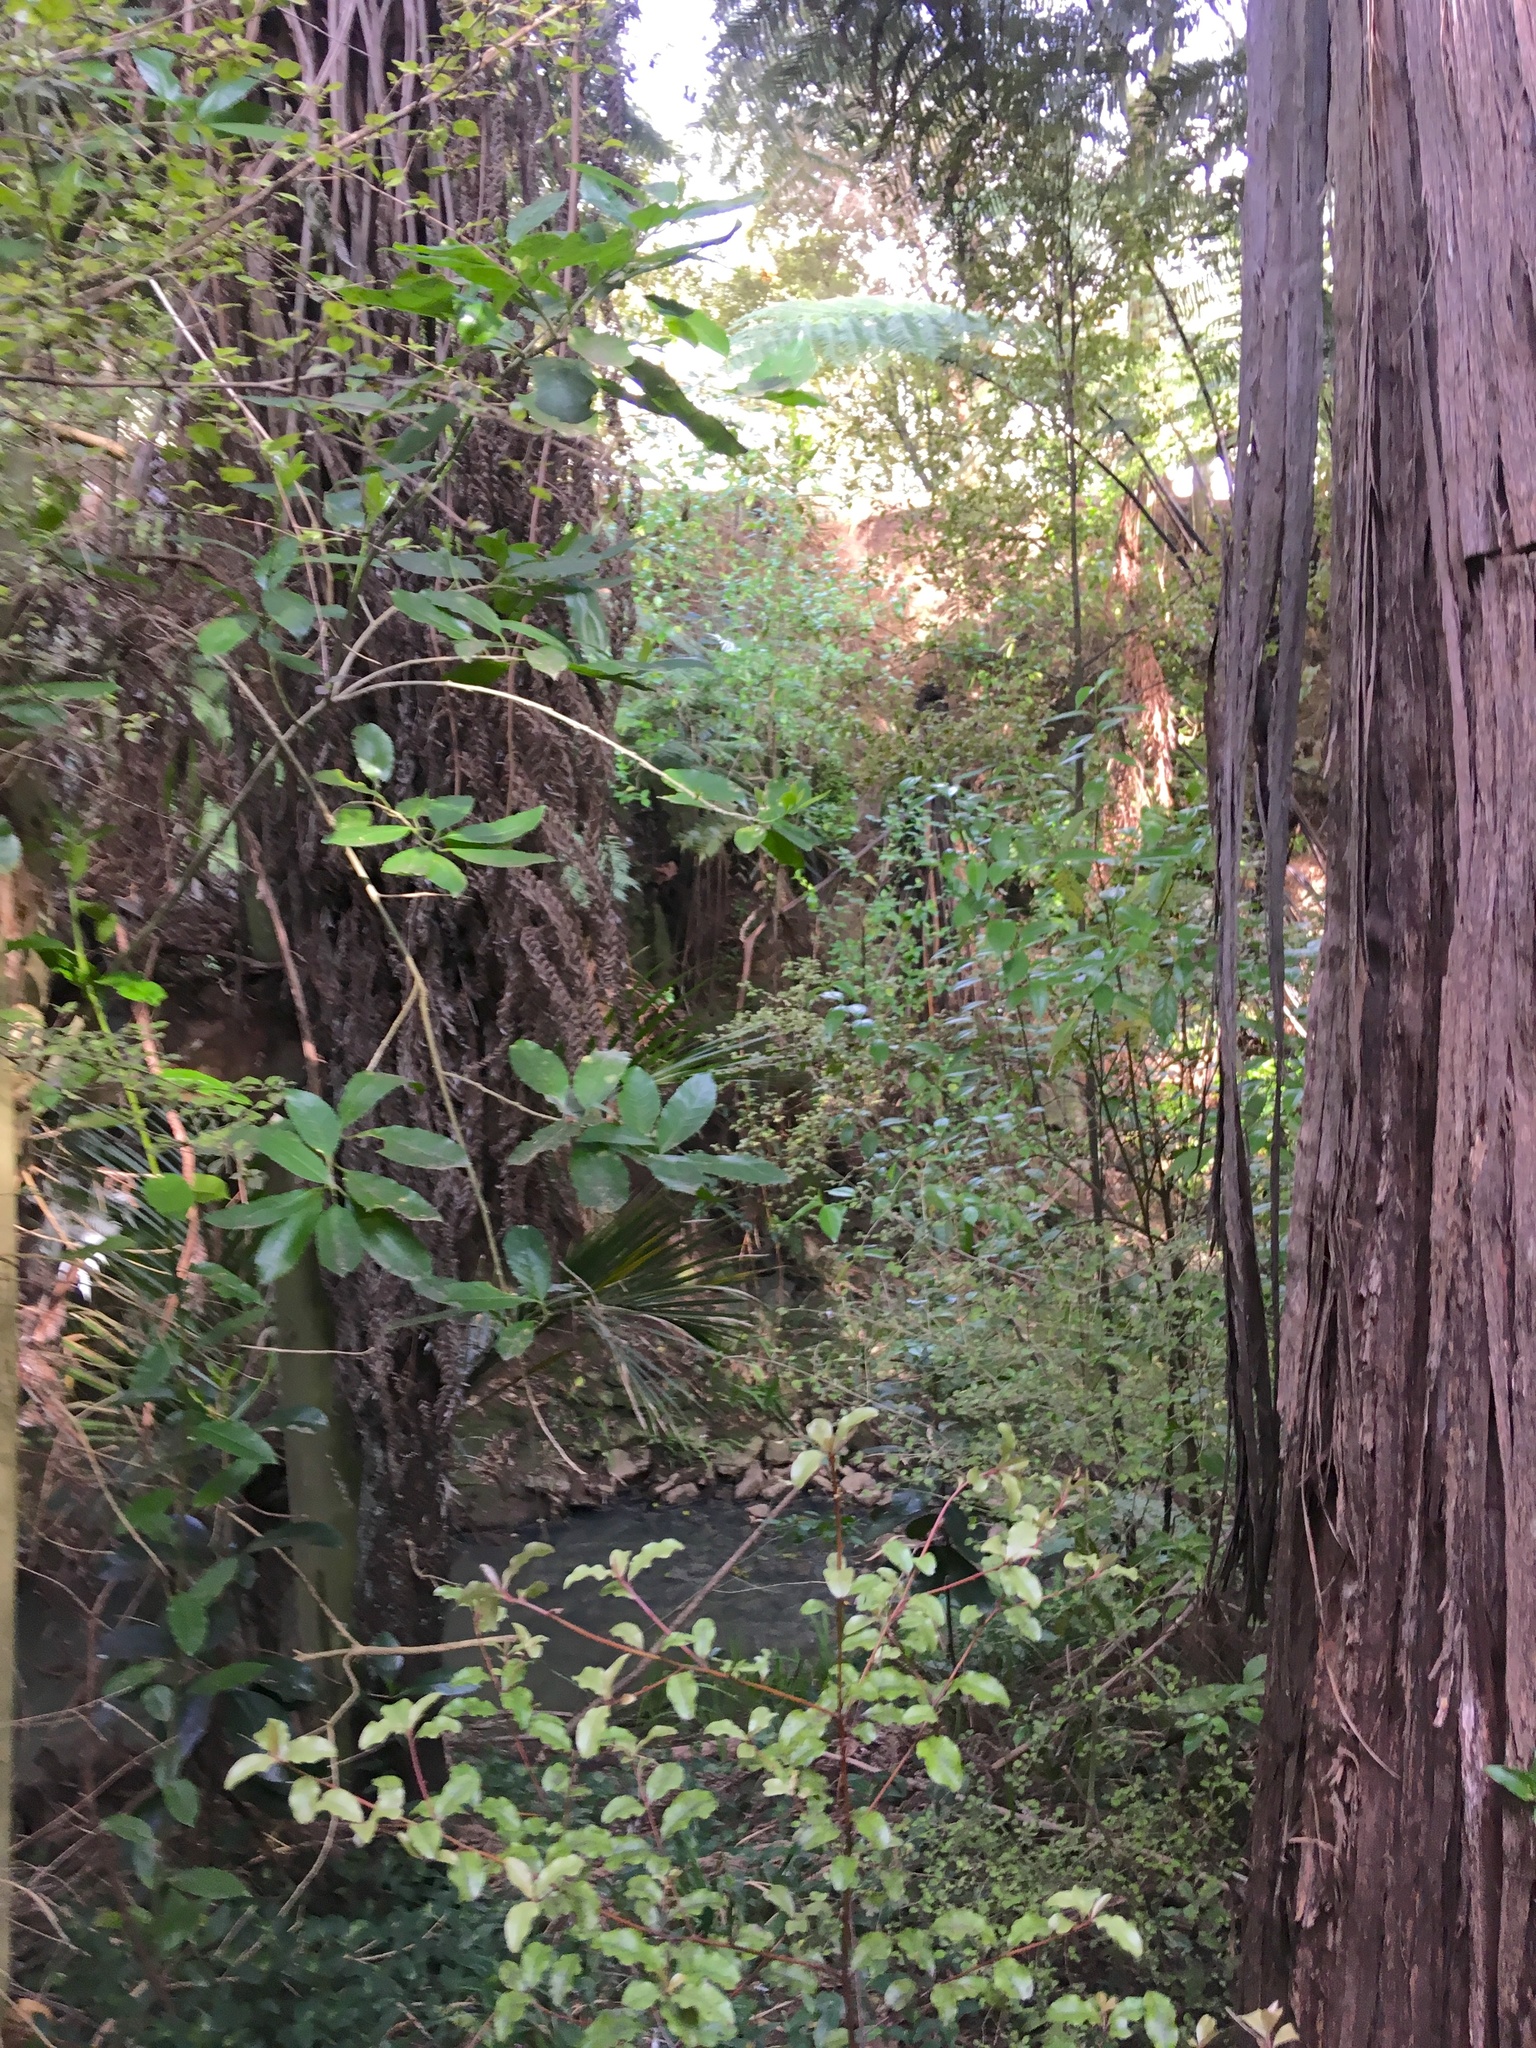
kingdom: Plantae
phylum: Tracheophyta
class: Magnoliopsida
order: Ericales
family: Primulaceae
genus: Myrsine
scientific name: Myrsine australis
